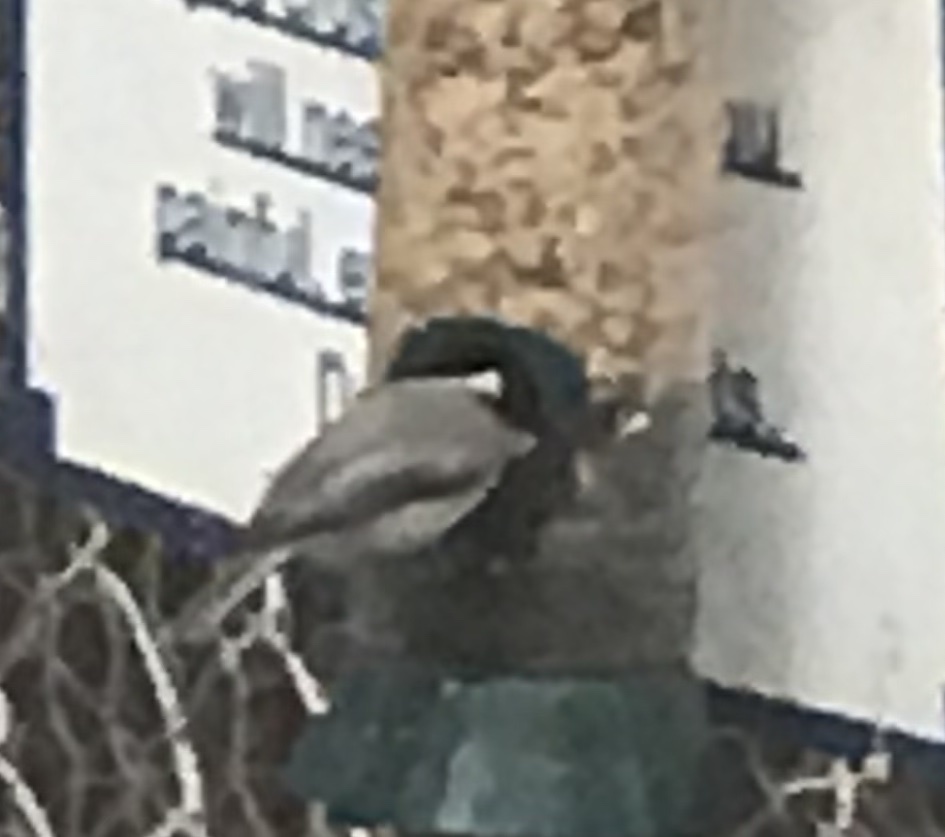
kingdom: Animalia
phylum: Chordata
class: Aves
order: Passeriformes
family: Paridae
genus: Poecile
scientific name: Poecile carolinensis
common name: Carolina chickadee
